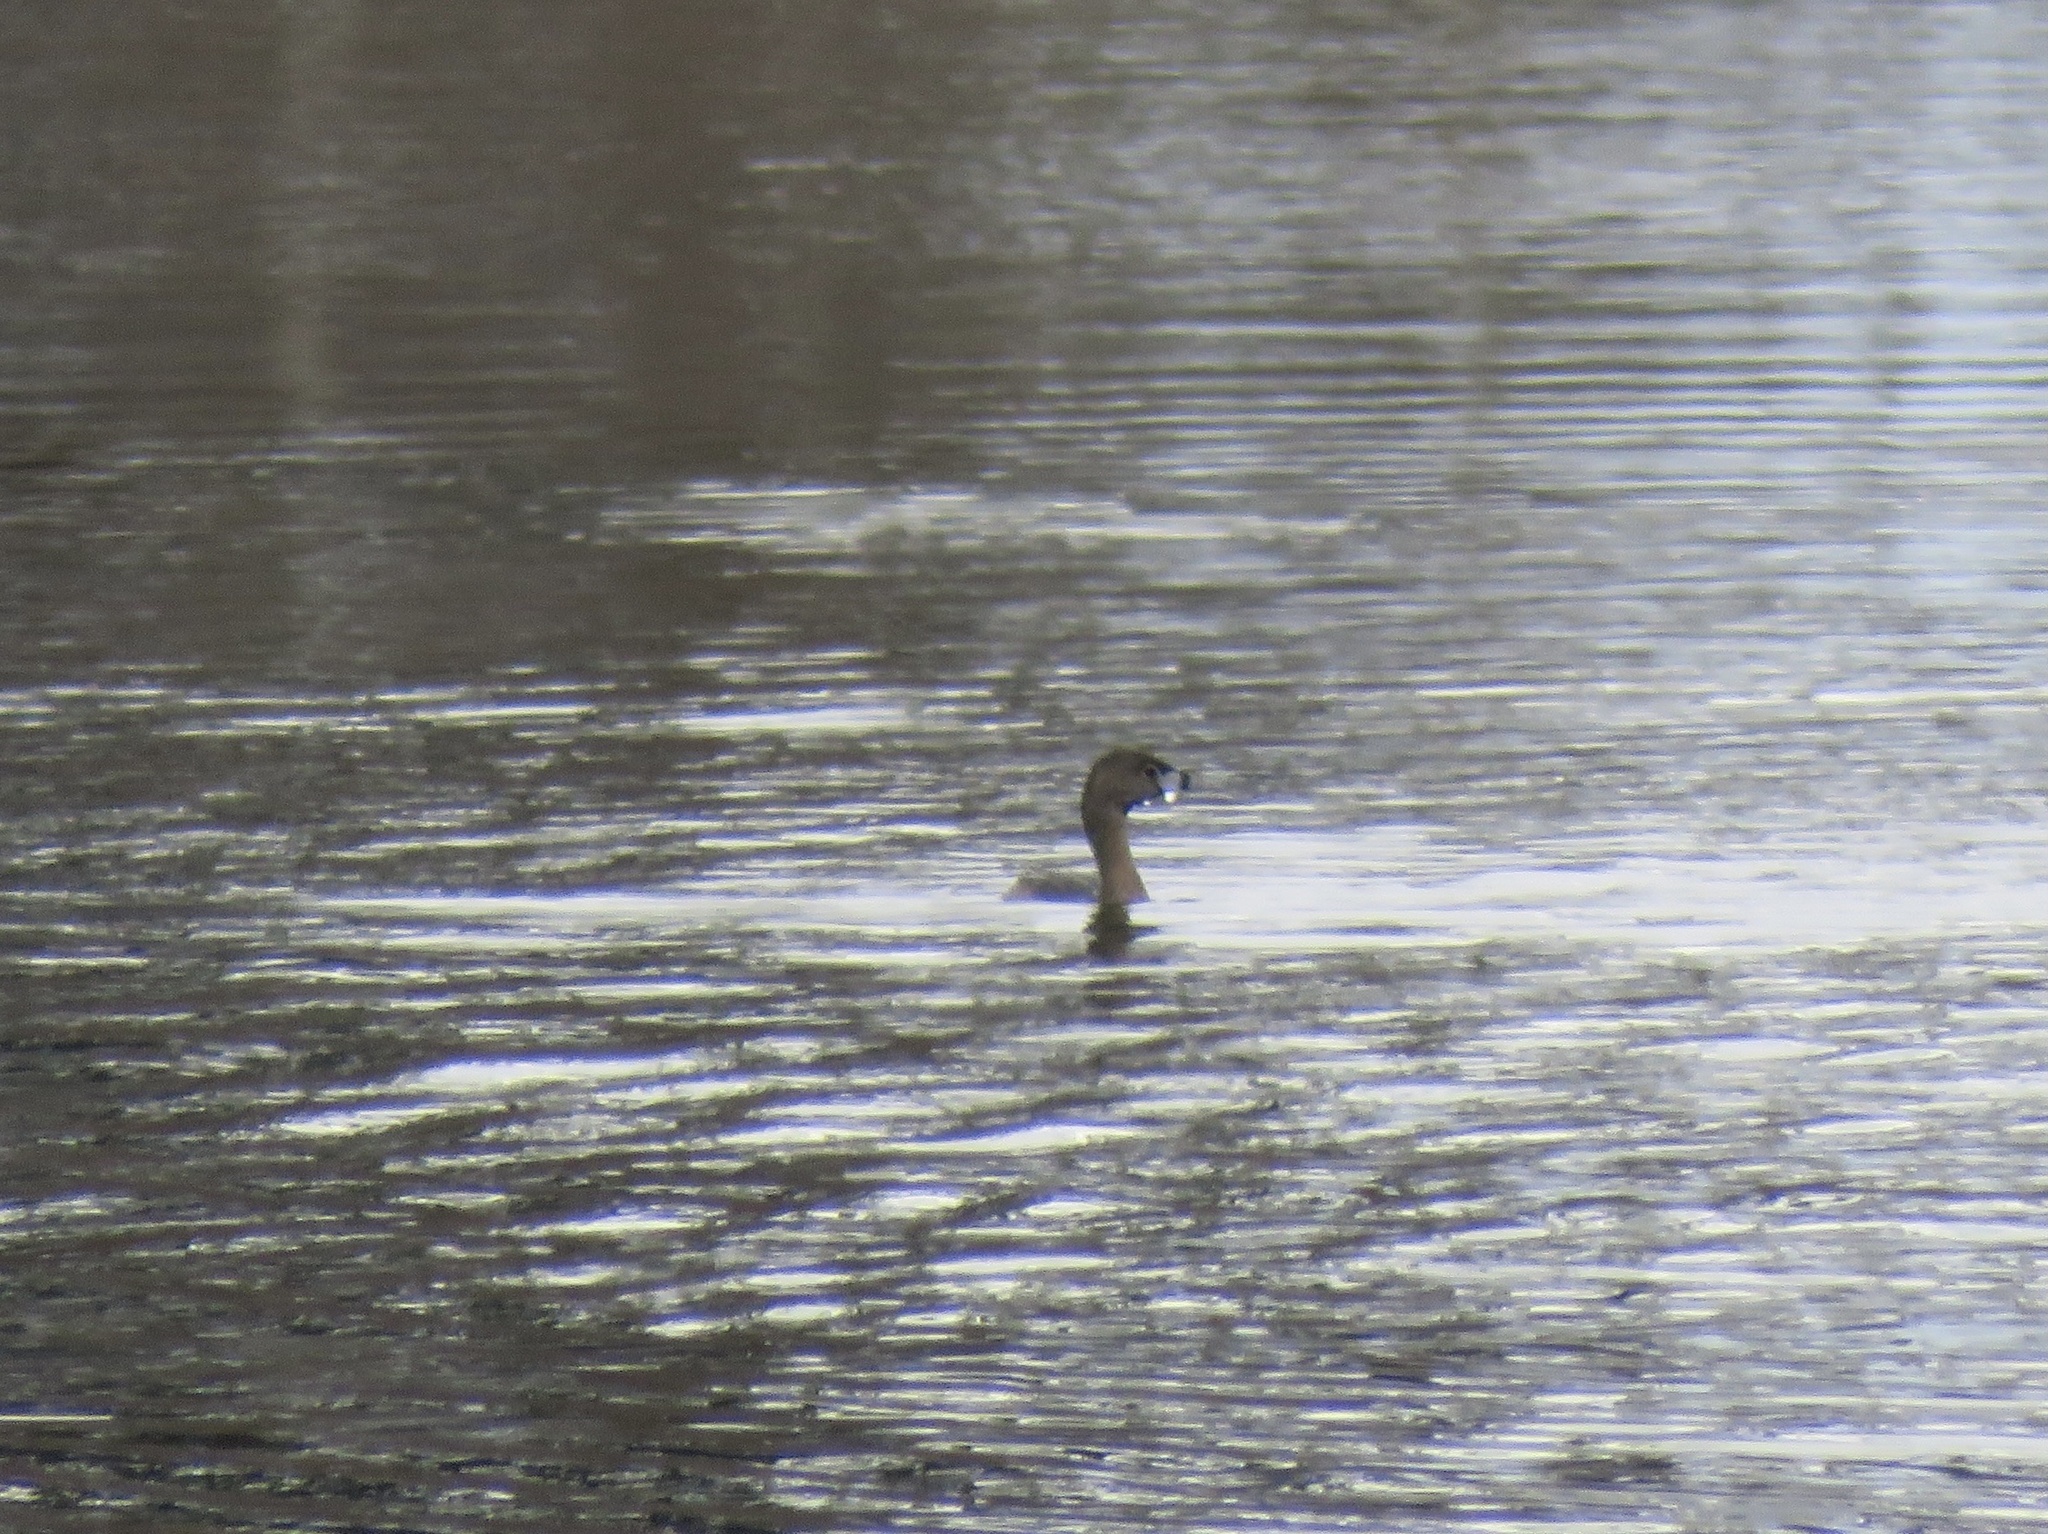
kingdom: Animalia
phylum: Chordata
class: Aves
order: Podicipediformes
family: Podicipedidae
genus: Podilymbus
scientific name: Podilymbus podiceps
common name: Pied-billed grebe
